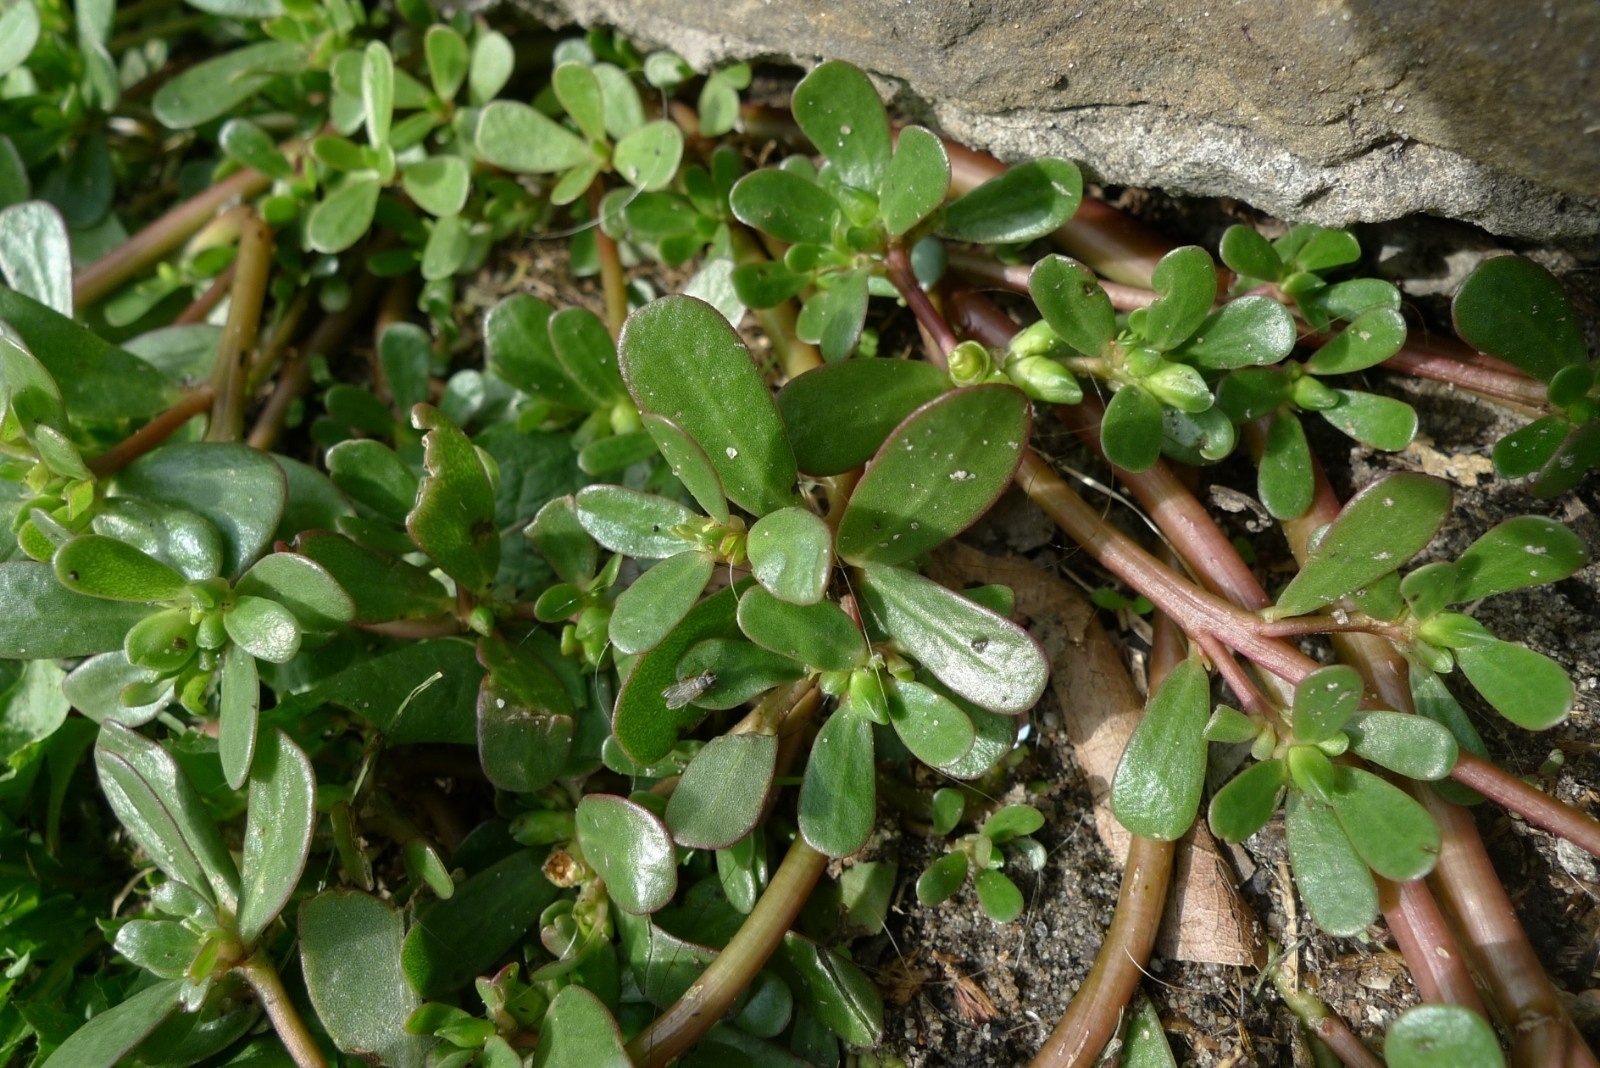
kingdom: Plantae
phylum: Tracheophyta
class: Magnoliopsida
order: Caryophyllales
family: Portulacaceae
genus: Portulaca
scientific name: Portulaca oleracea
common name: Common purslane
